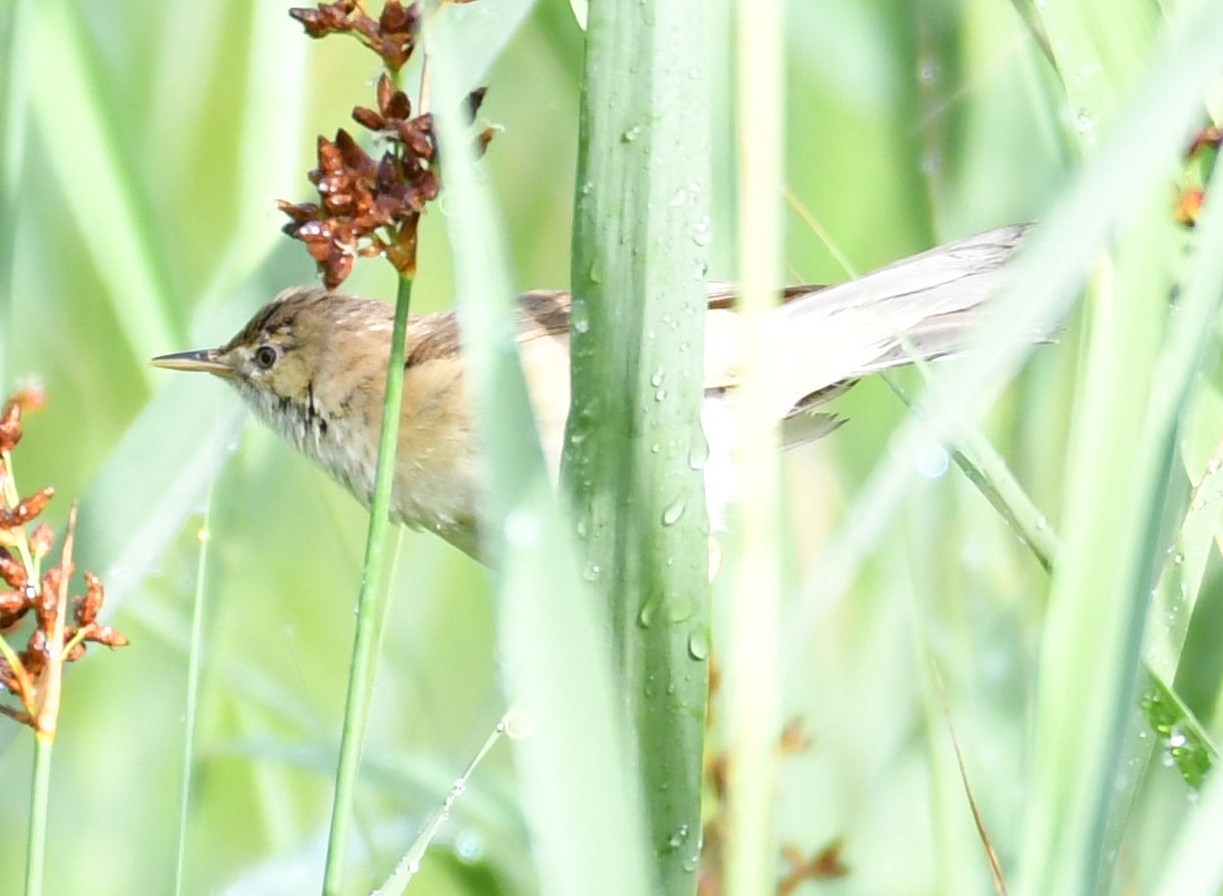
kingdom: Animalia
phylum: Chordata
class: Aves
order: Passeriformes
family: Acrocephalidae
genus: Acrocephalus
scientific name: Acrocephalus scirpaceus
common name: Eurasian reed warbler
